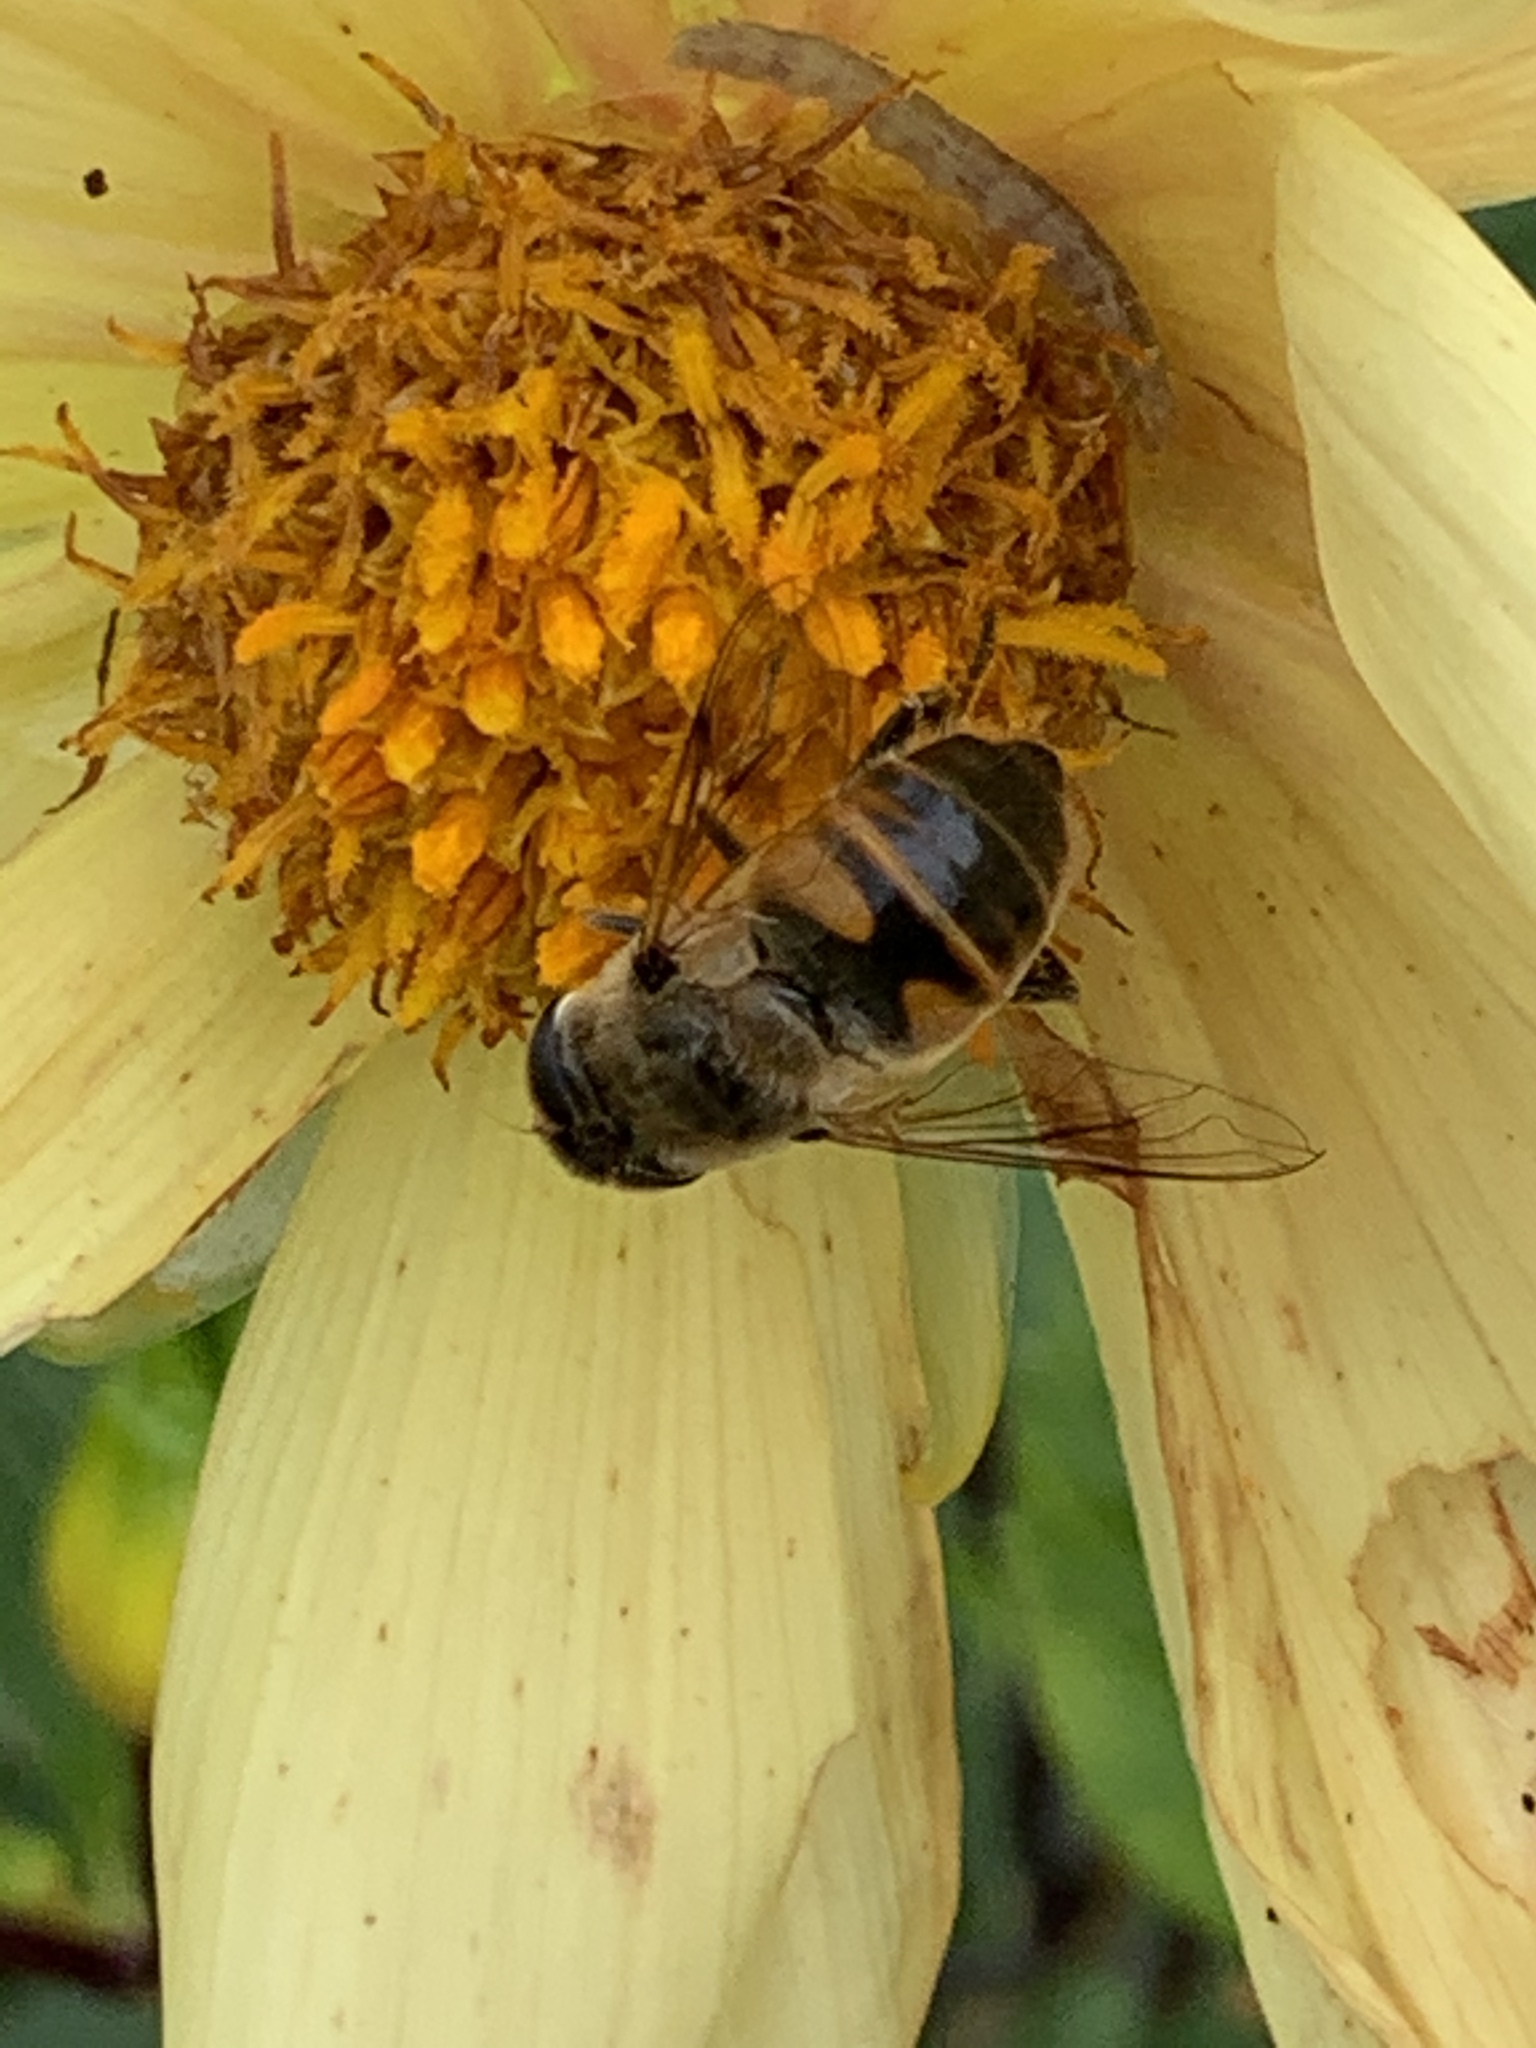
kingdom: Animalia
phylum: Arthropoda
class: Insecta
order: Diptera
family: Syrphidae
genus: Eristalis
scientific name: Eristalis tenax
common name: Drone fly
